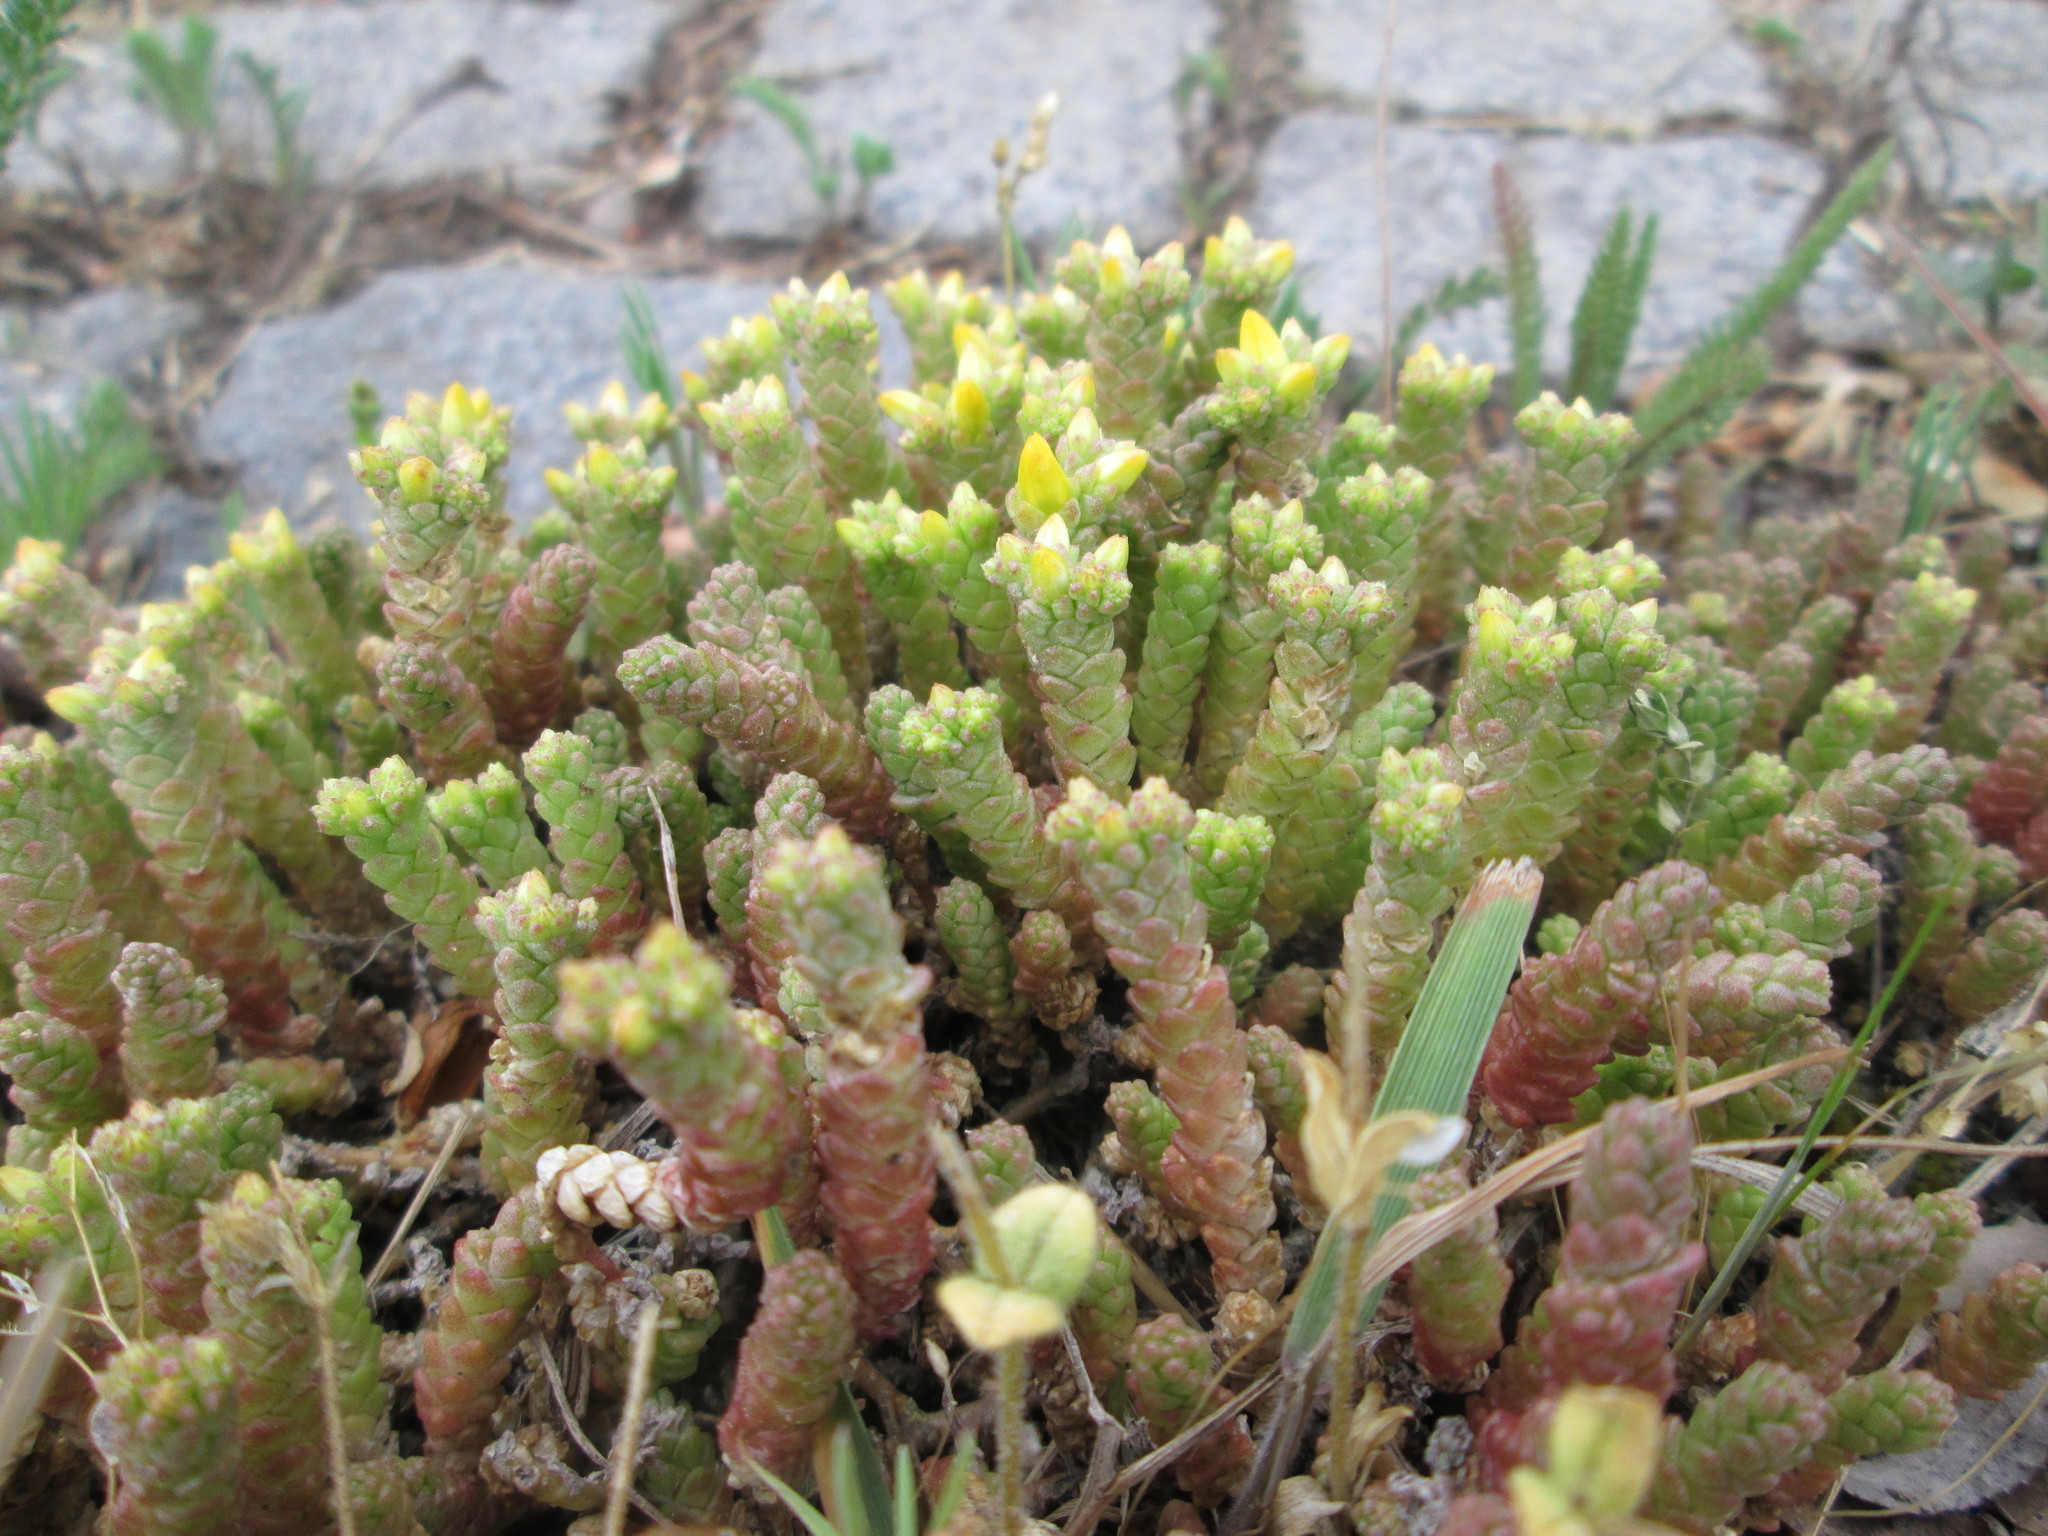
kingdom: Plantae
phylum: Tracheophyta
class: Magnoliopsida
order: Saxifragales
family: Crassulaceae
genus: Sedum
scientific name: Sedum acre
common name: Biting stonecrop
